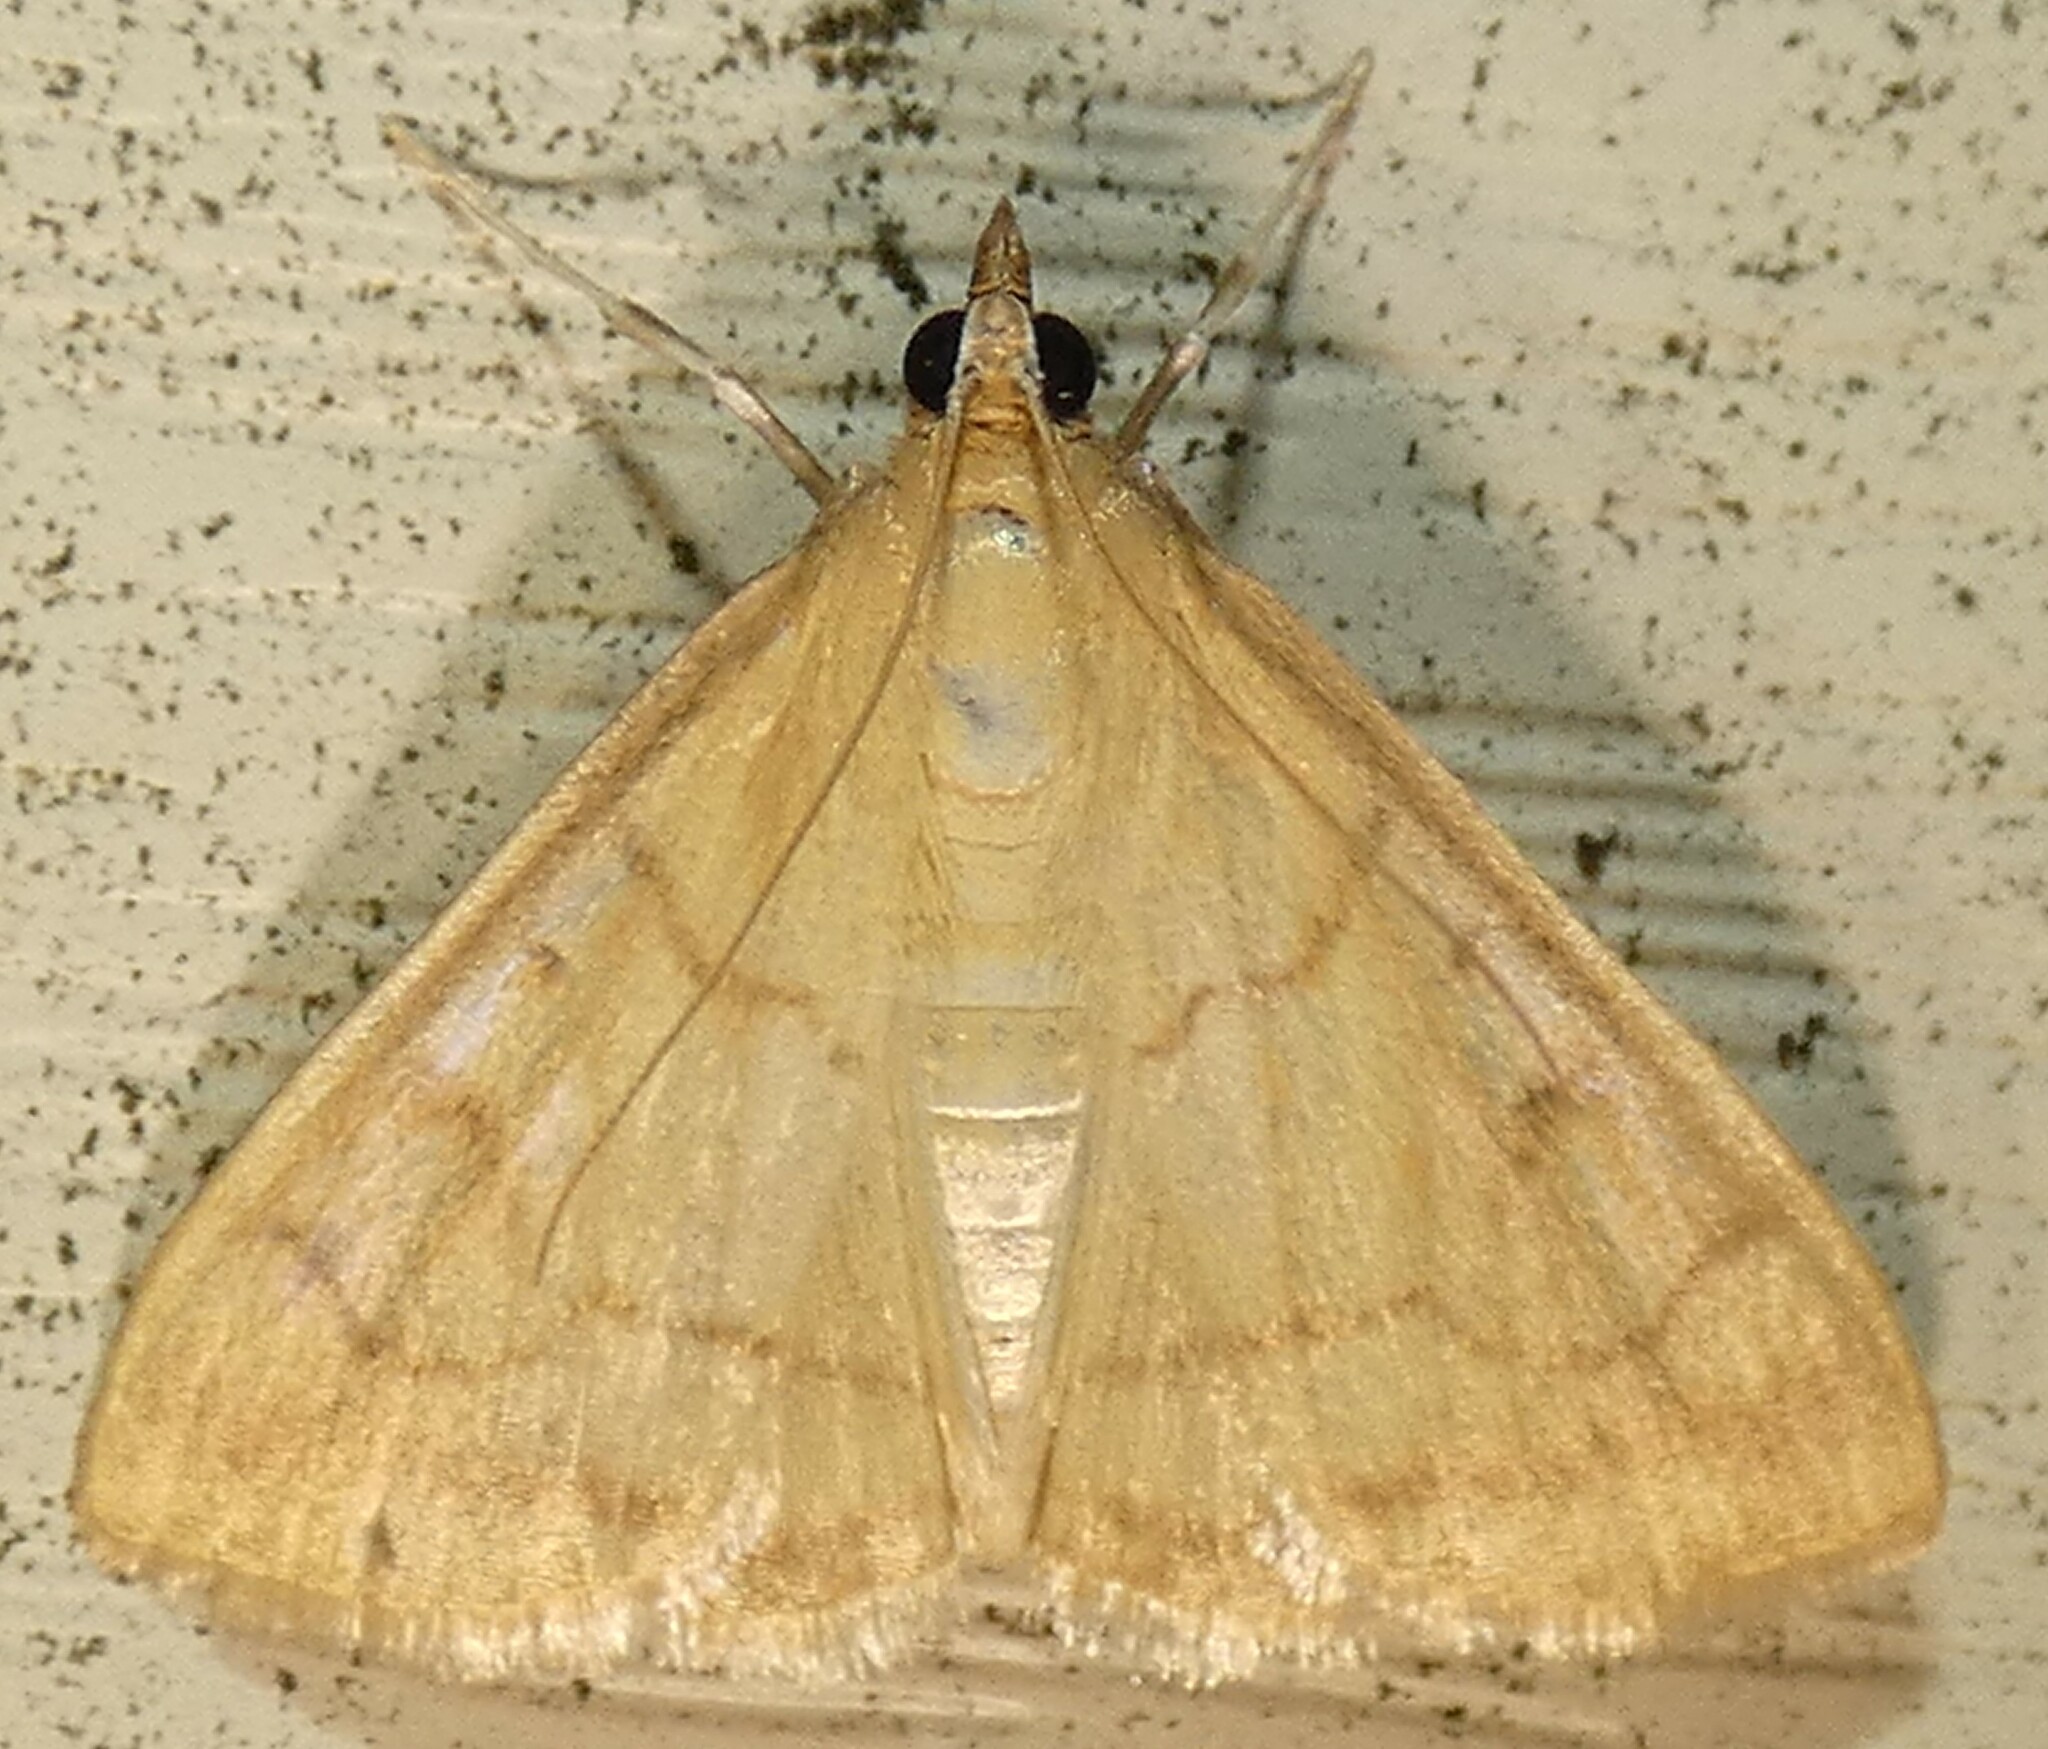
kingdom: Animalia
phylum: Arthropoda
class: Insecta
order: Lepidoptera
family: Crambidae
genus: Hahncappsia
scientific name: Hahncappsia mancalis
